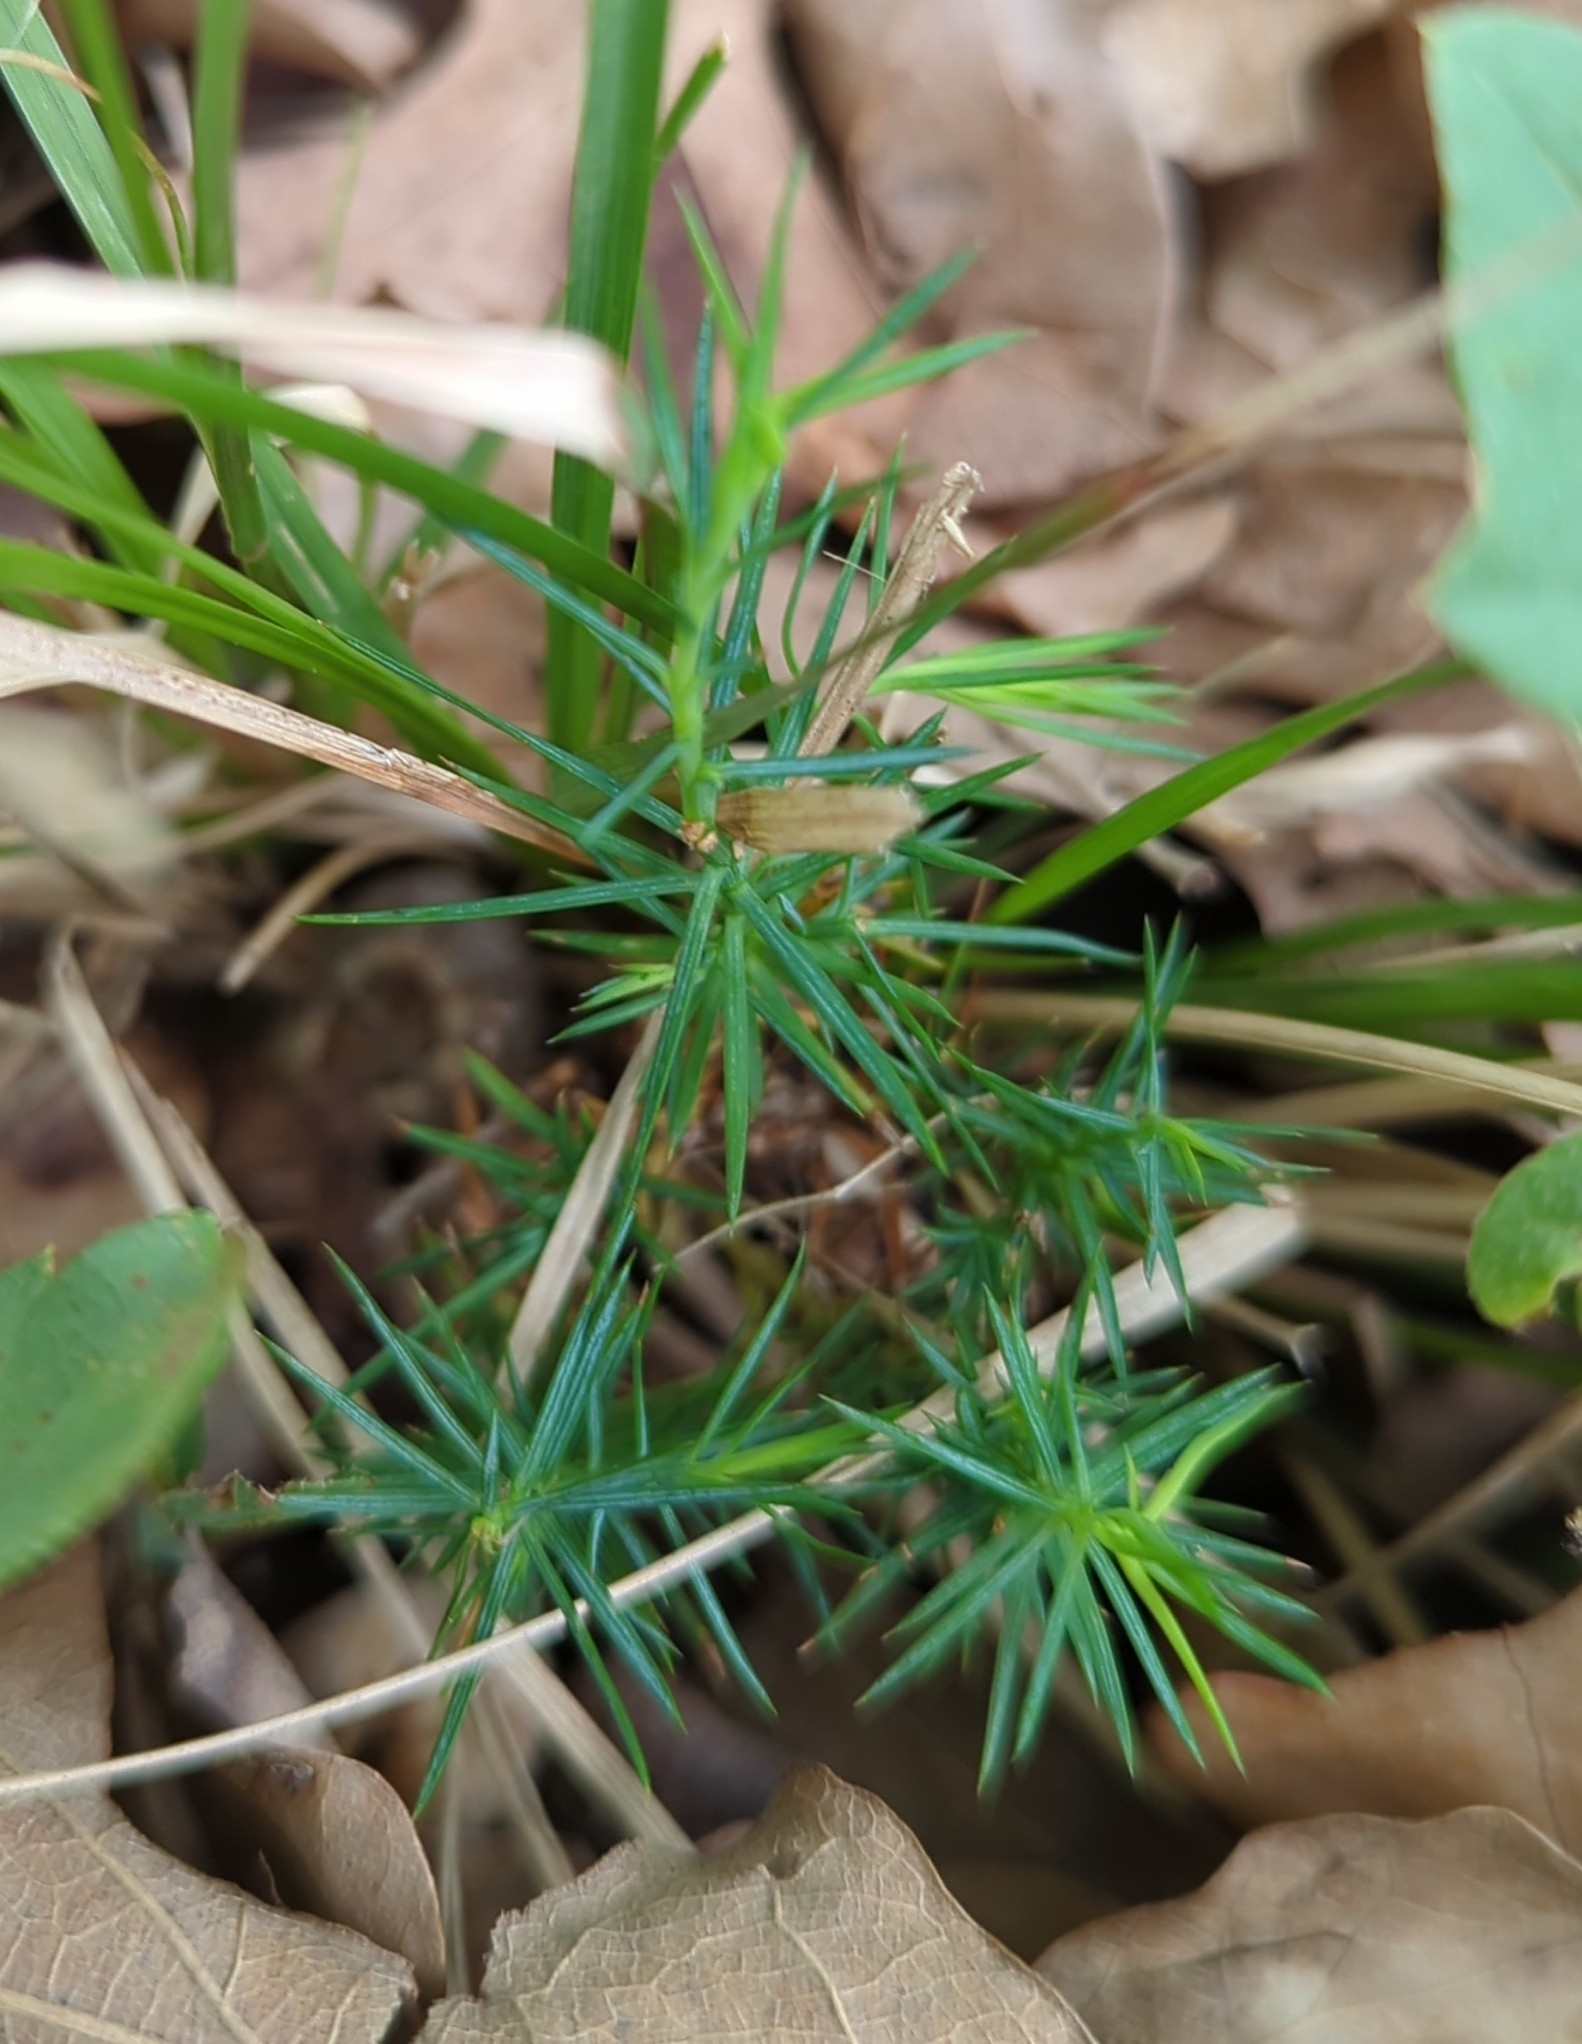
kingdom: Plantae
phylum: Tracheophyta
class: Pinopsida
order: Pinales
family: Cupressaceae
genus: Juniperus
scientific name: Juniperus virginiana
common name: Red juniper
